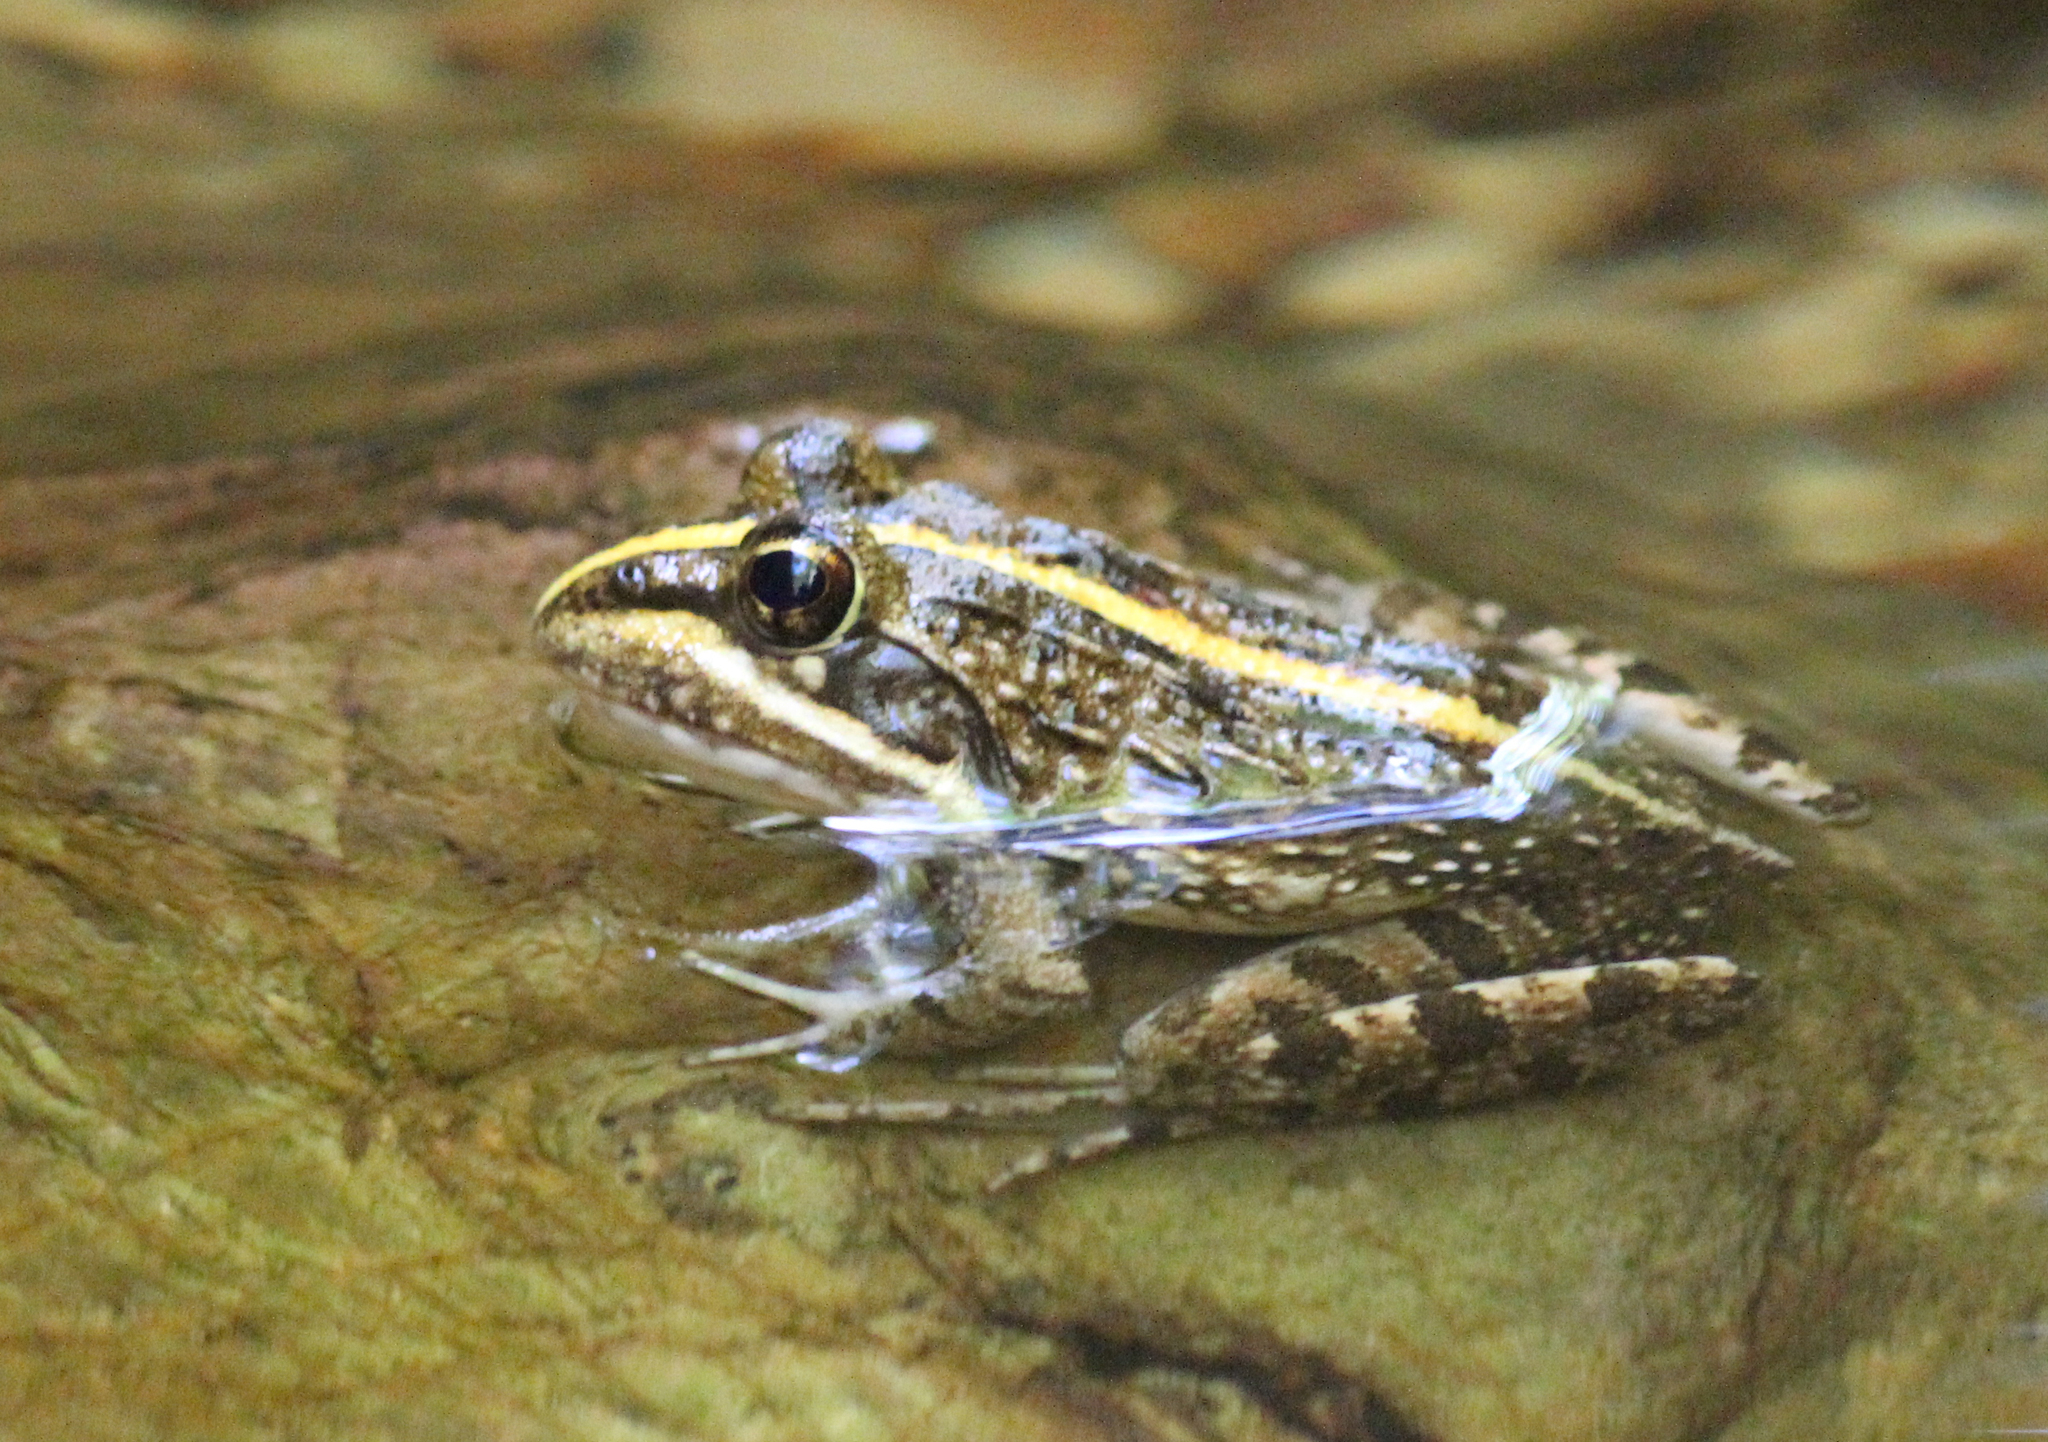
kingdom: Animalia
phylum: Chordata
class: Amphibia
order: Anura
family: Pyxicephalidae
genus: Amietia
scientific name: Amietia fuscigula
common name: Cape rana
